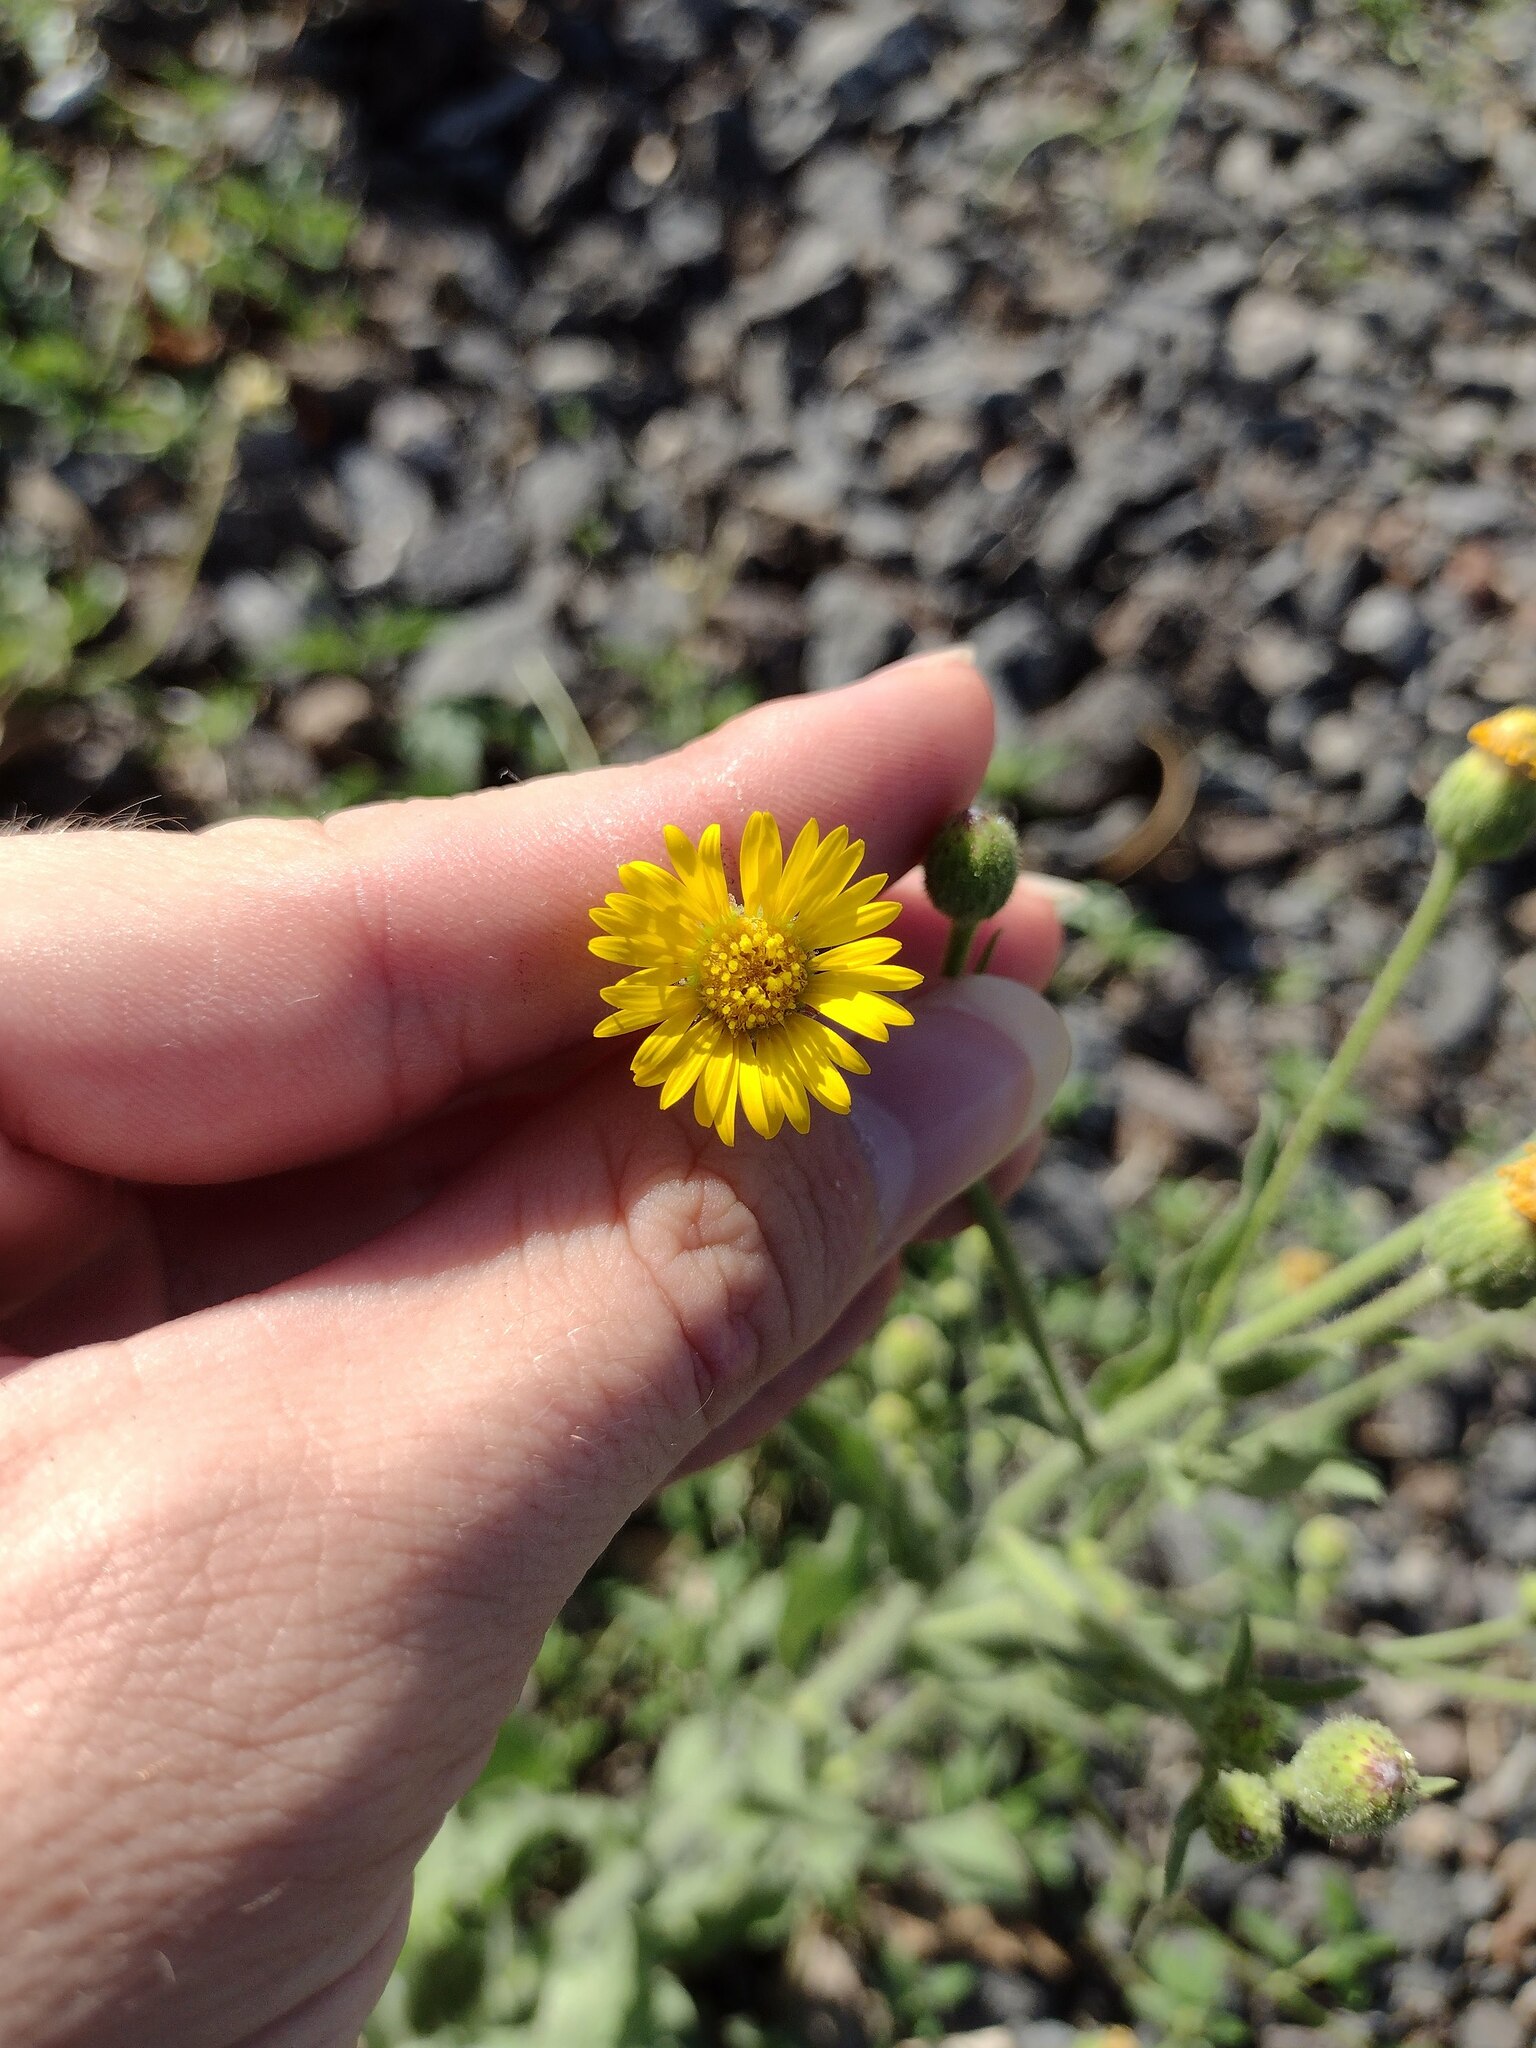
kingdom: Plantae
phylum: Tracheophyta
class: Magnoliopsida
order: Asterales
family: Asteraceae
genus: Heterotheca
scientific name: Heterotheca grandiflora
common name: Telegraphweed
